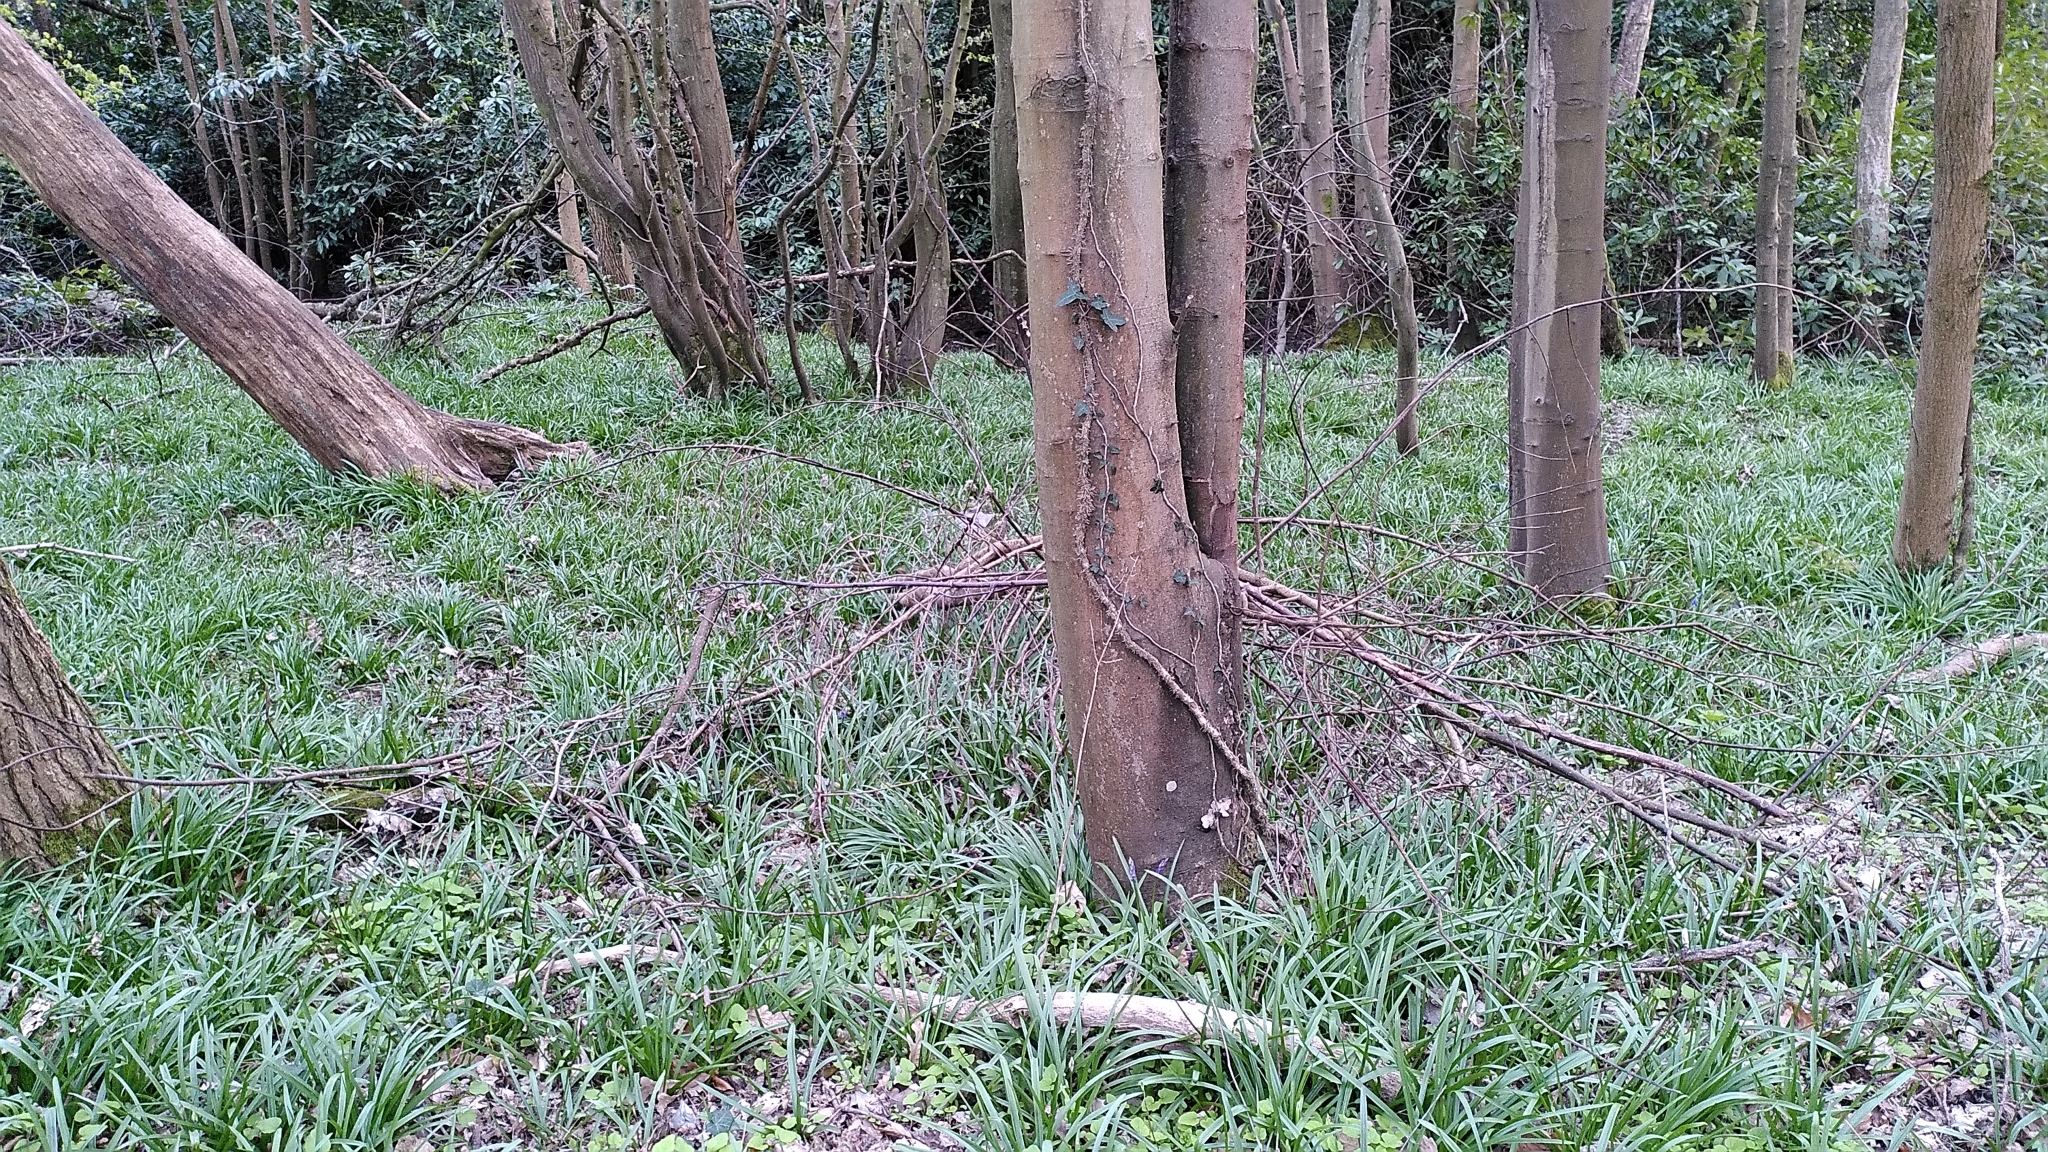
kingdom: Plantae
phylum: Tracheophyta
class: Liliopsida
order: Asparagales
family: Asparagaceae
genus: Hyacinthoides
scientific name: Hyacinthoides non-scripta
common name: Bluebell
